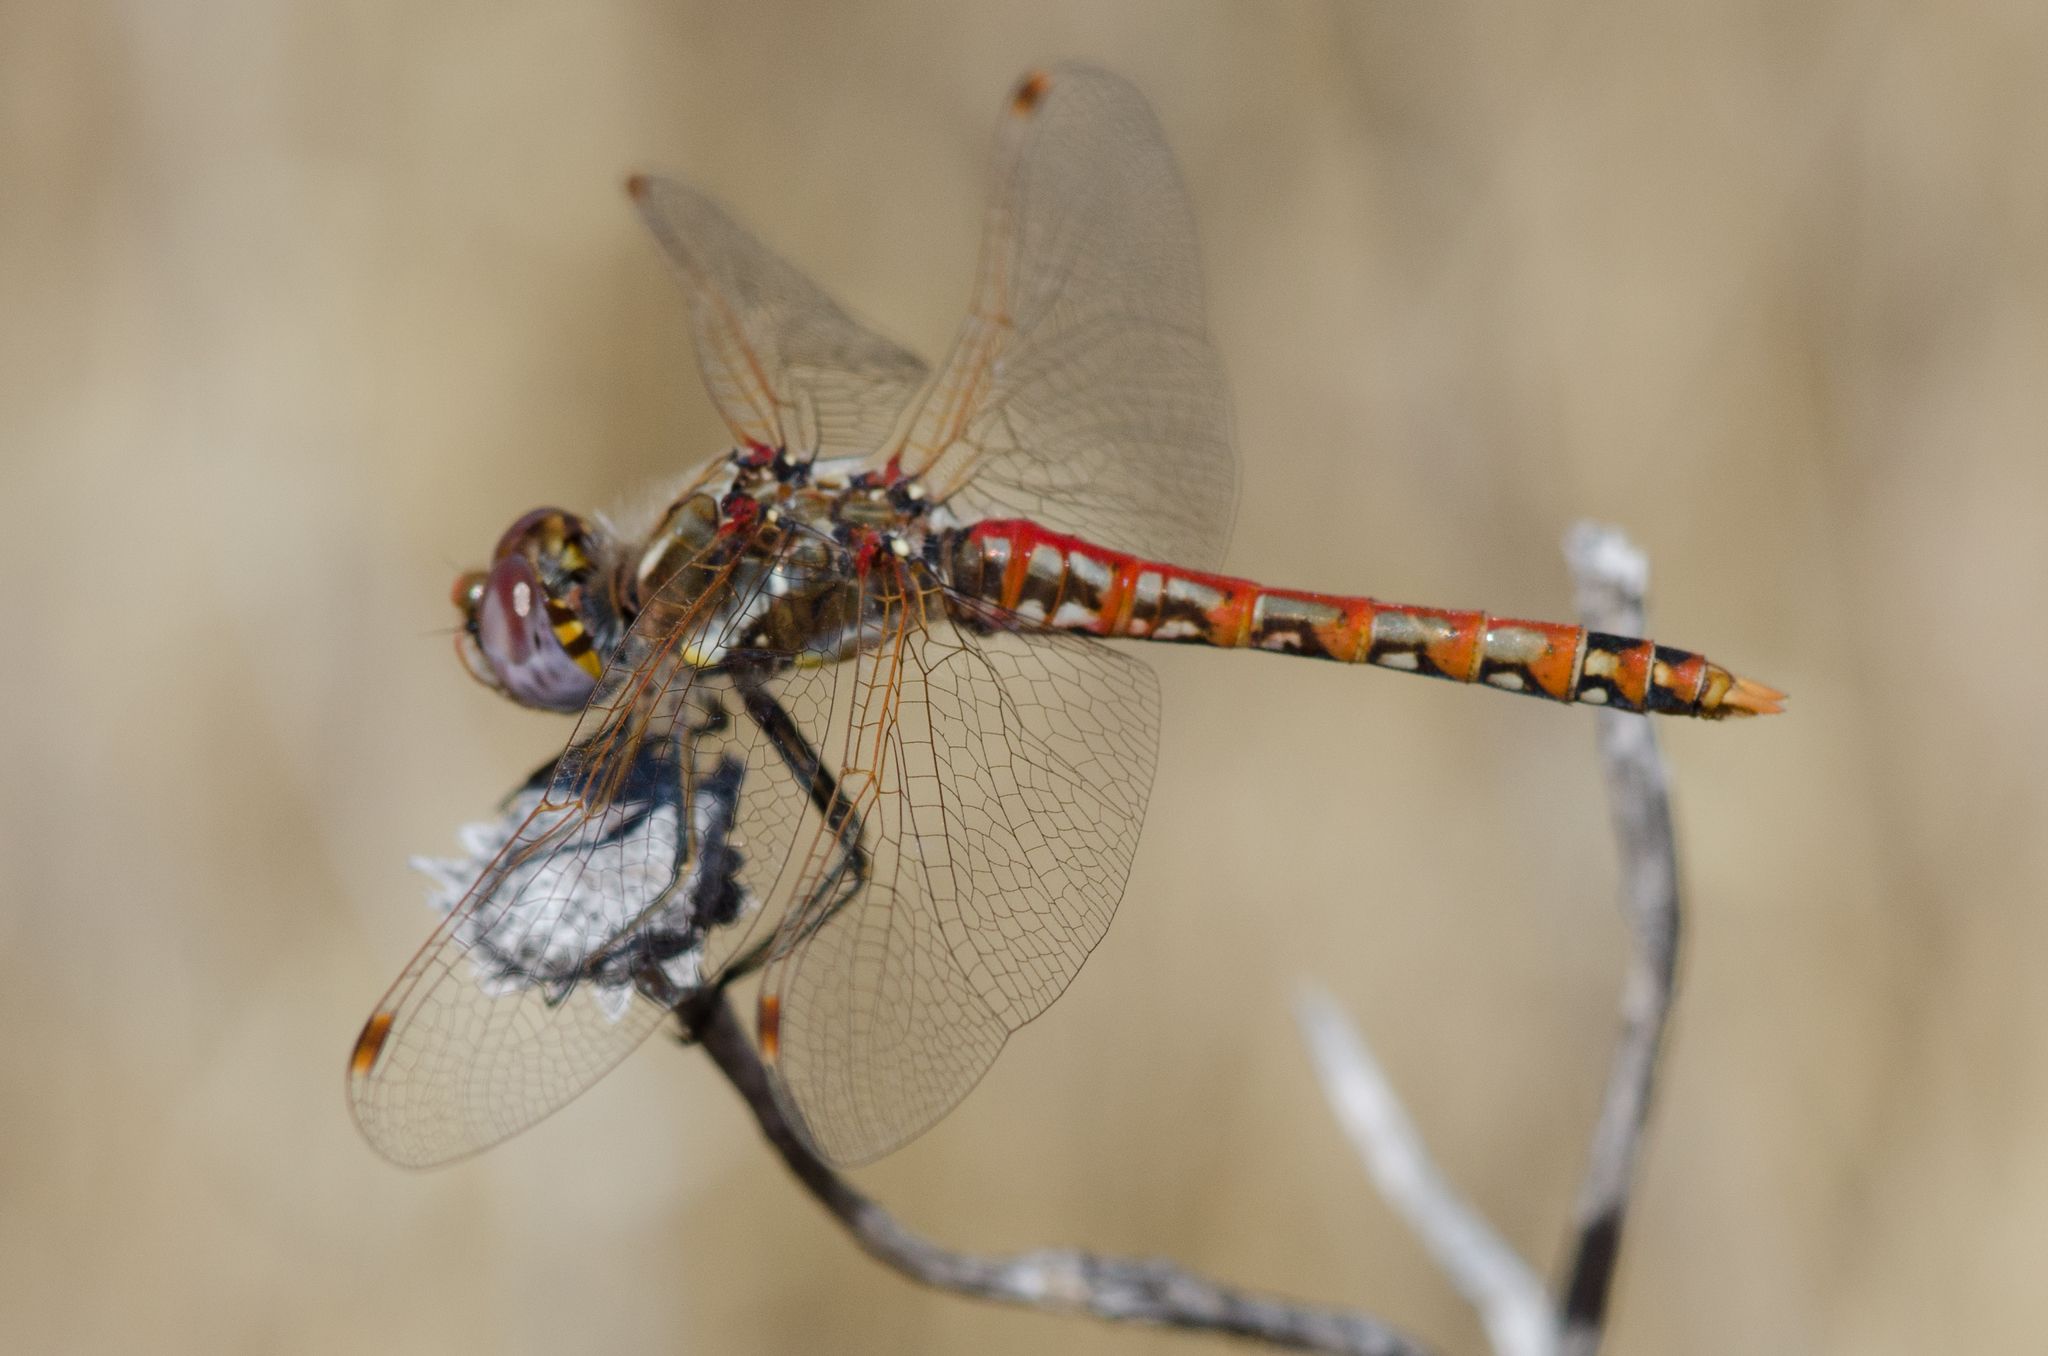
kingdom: Animalia
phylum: Arthropoda
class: Insecta
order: Odonata
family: Libellulidae
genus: Sympetrum
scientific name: Sympetrum corruptum
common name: Variegated meadowhawk
